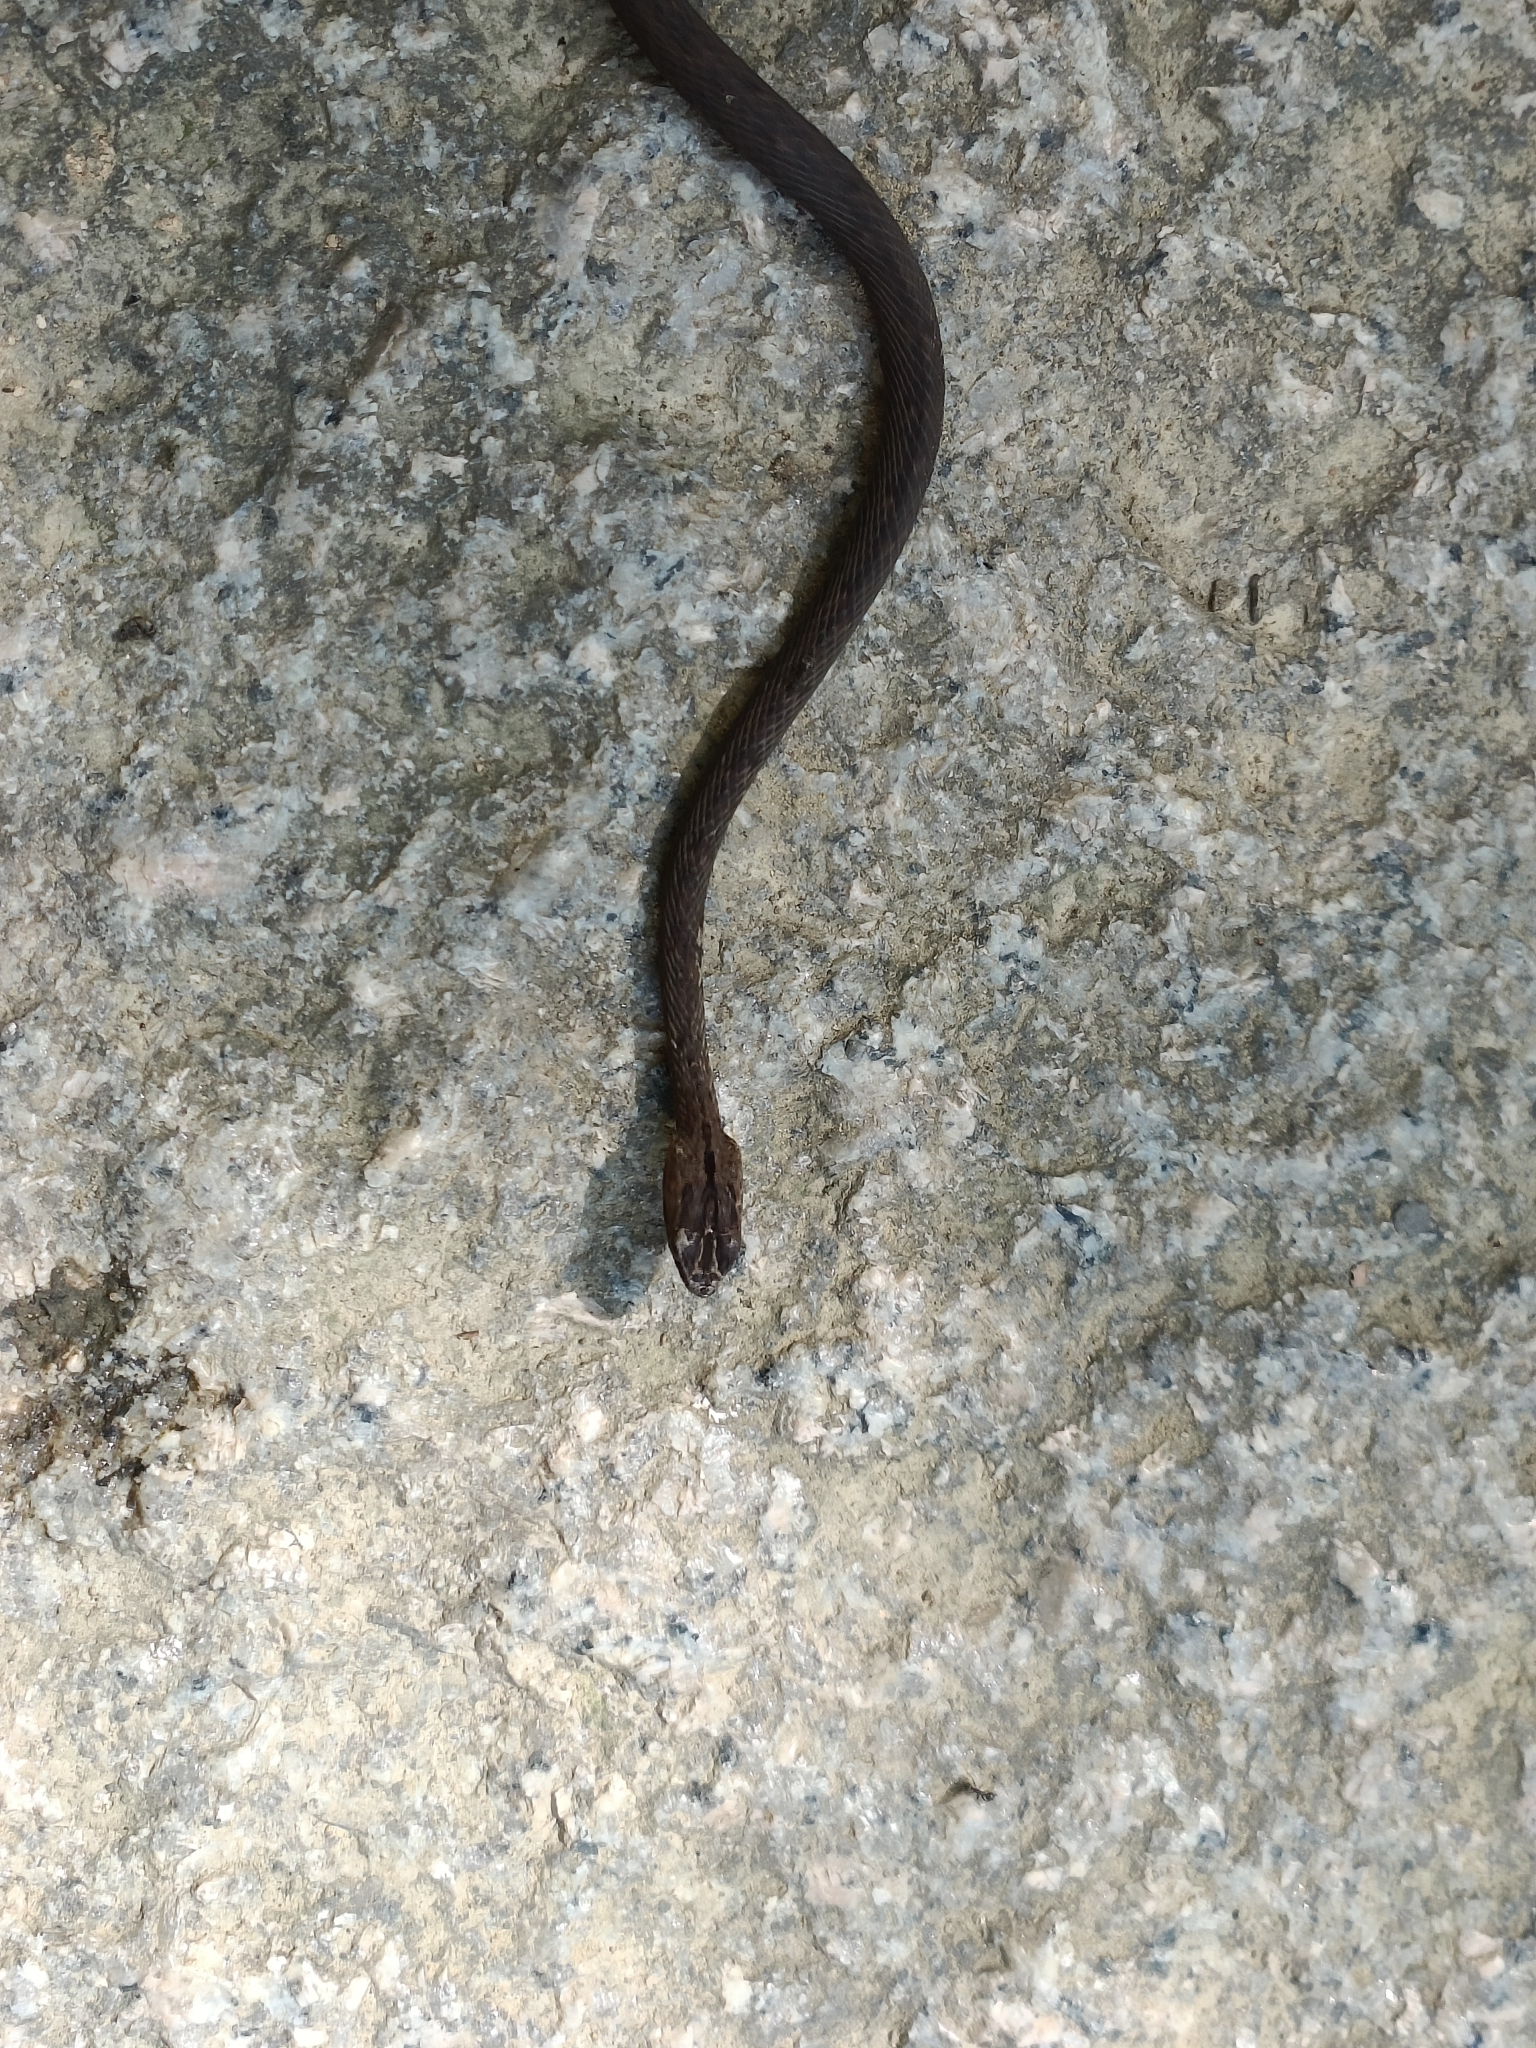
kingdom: Animalia
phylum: Chordata
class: Squamata
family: Pseudaspididae
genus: Psammodynastes
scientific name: Psammodynastes pulverulentus
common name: Common mock viper
